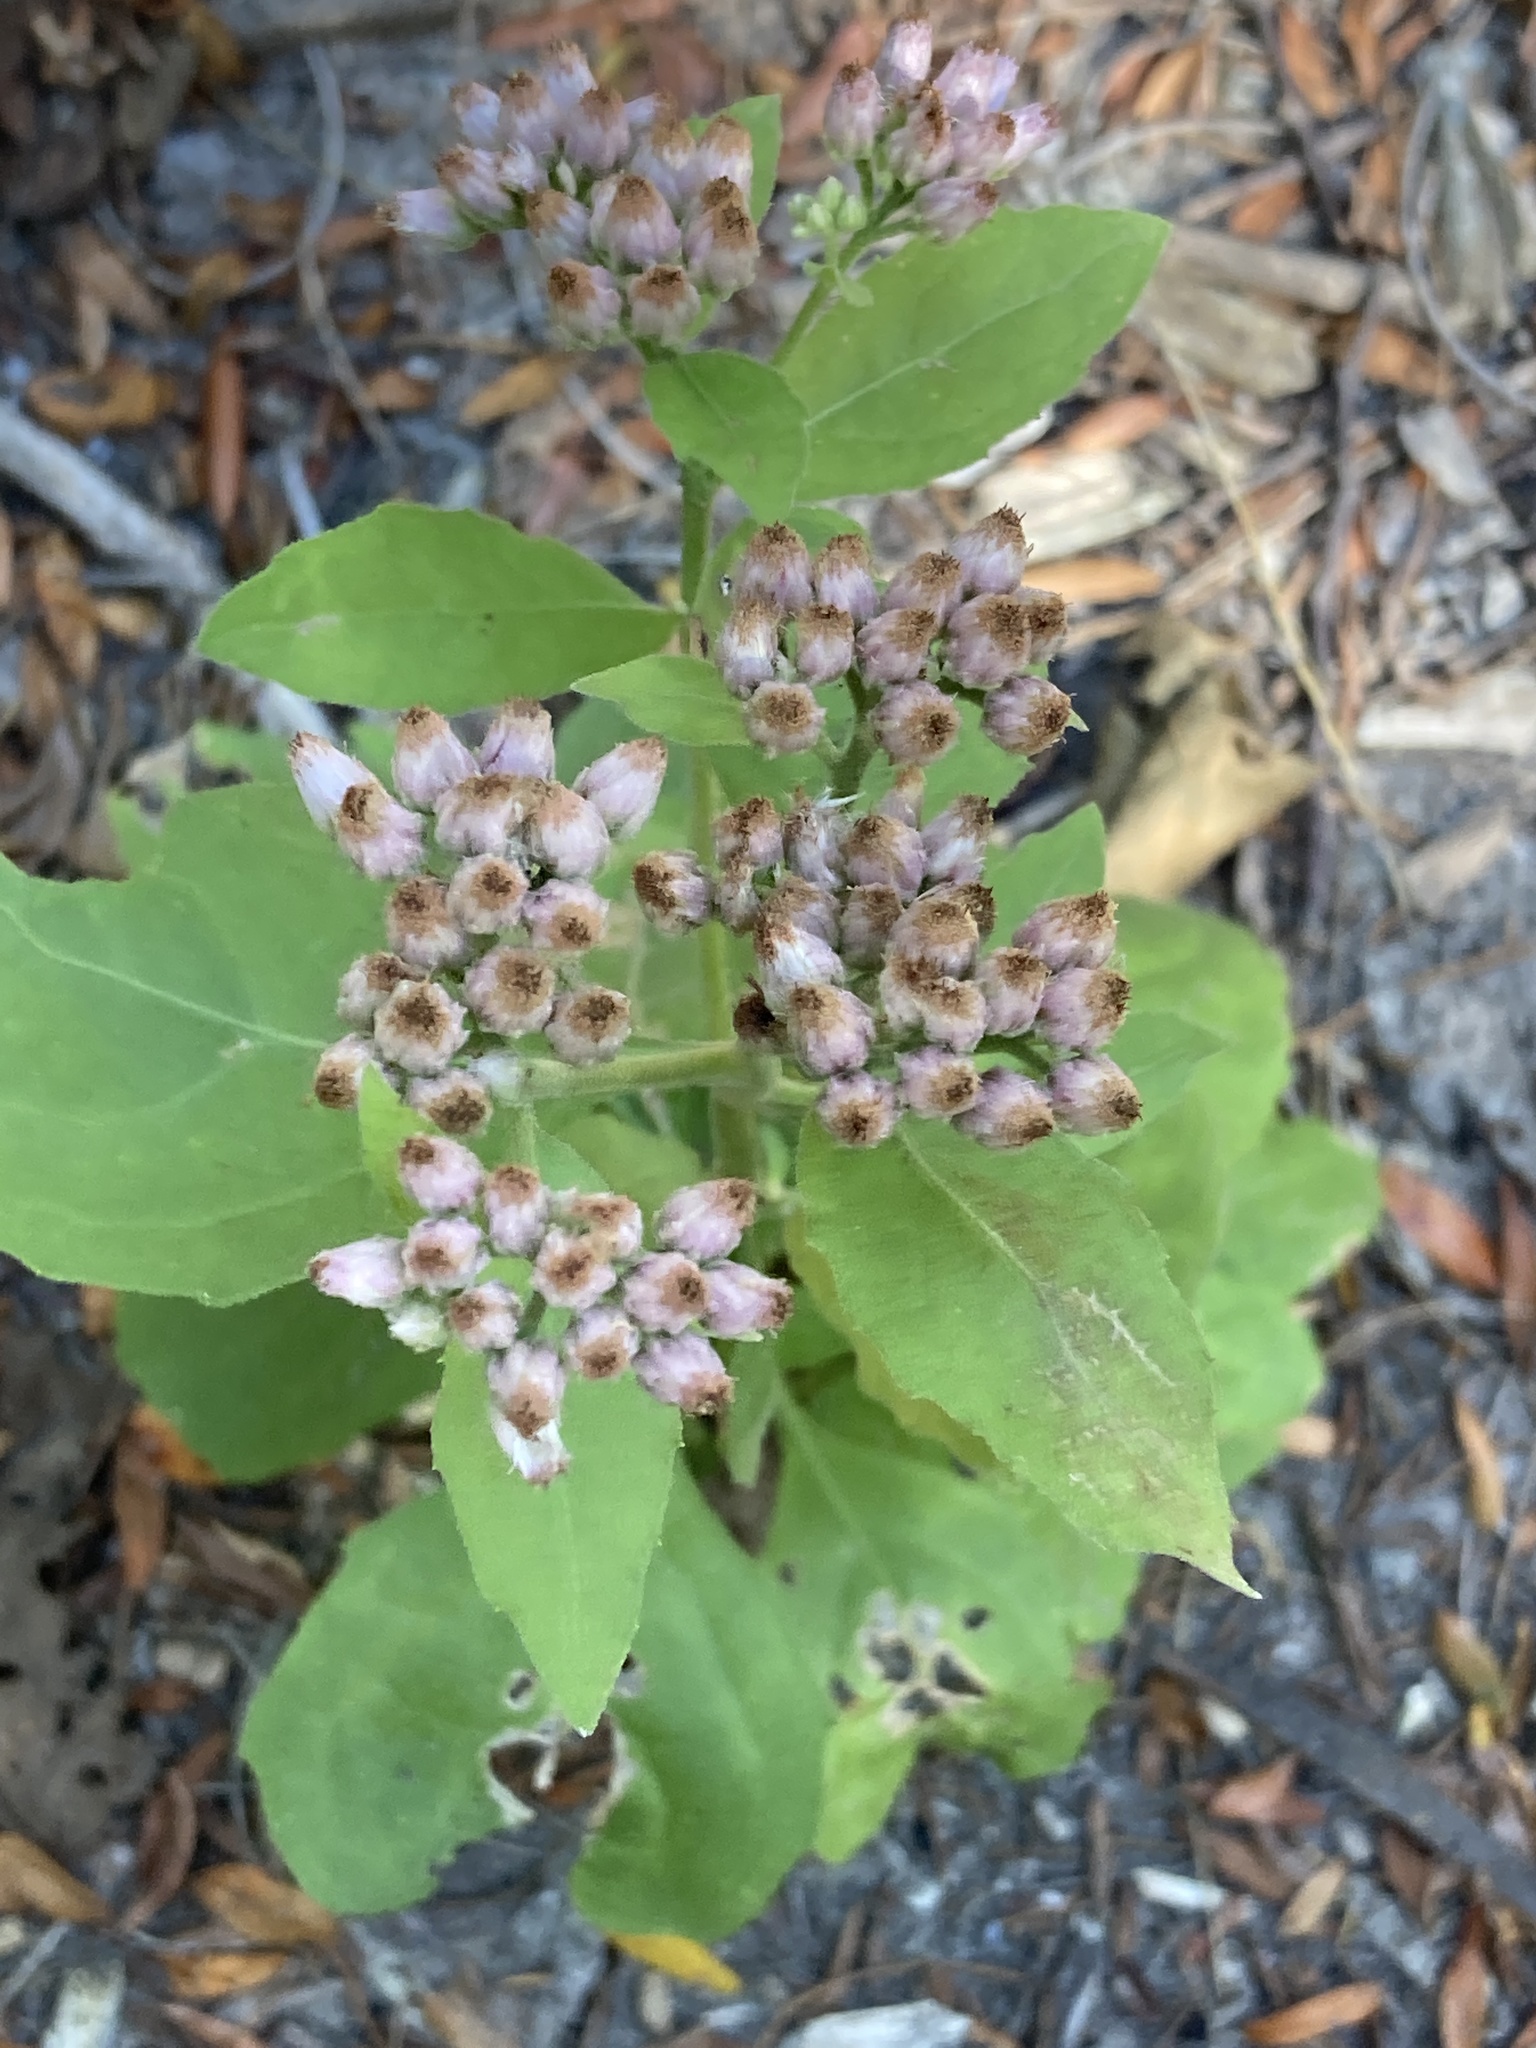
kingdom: Plantae
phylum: Tracheophyta
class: Magnoliopsida
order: Asterales
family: Asteraceae
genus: Pluchea
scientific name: Pluchea odorata
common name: Saltmarsh fleabane
